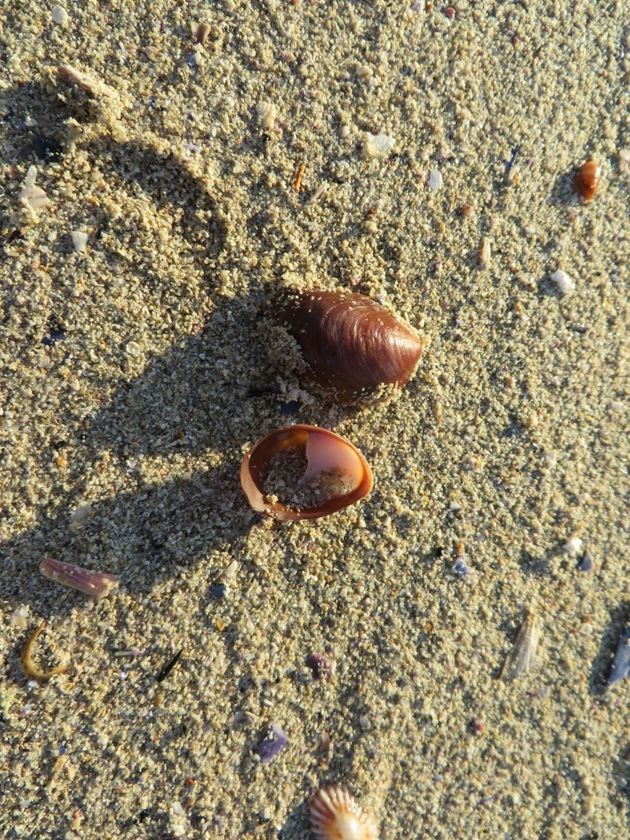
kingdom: Animalia
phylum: Mollusca
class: Gastropoda
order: Littorinimorpha
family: Calyptraeidae
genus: Crepidula
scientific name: Crepidula porcellana
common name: Slipper limpet
